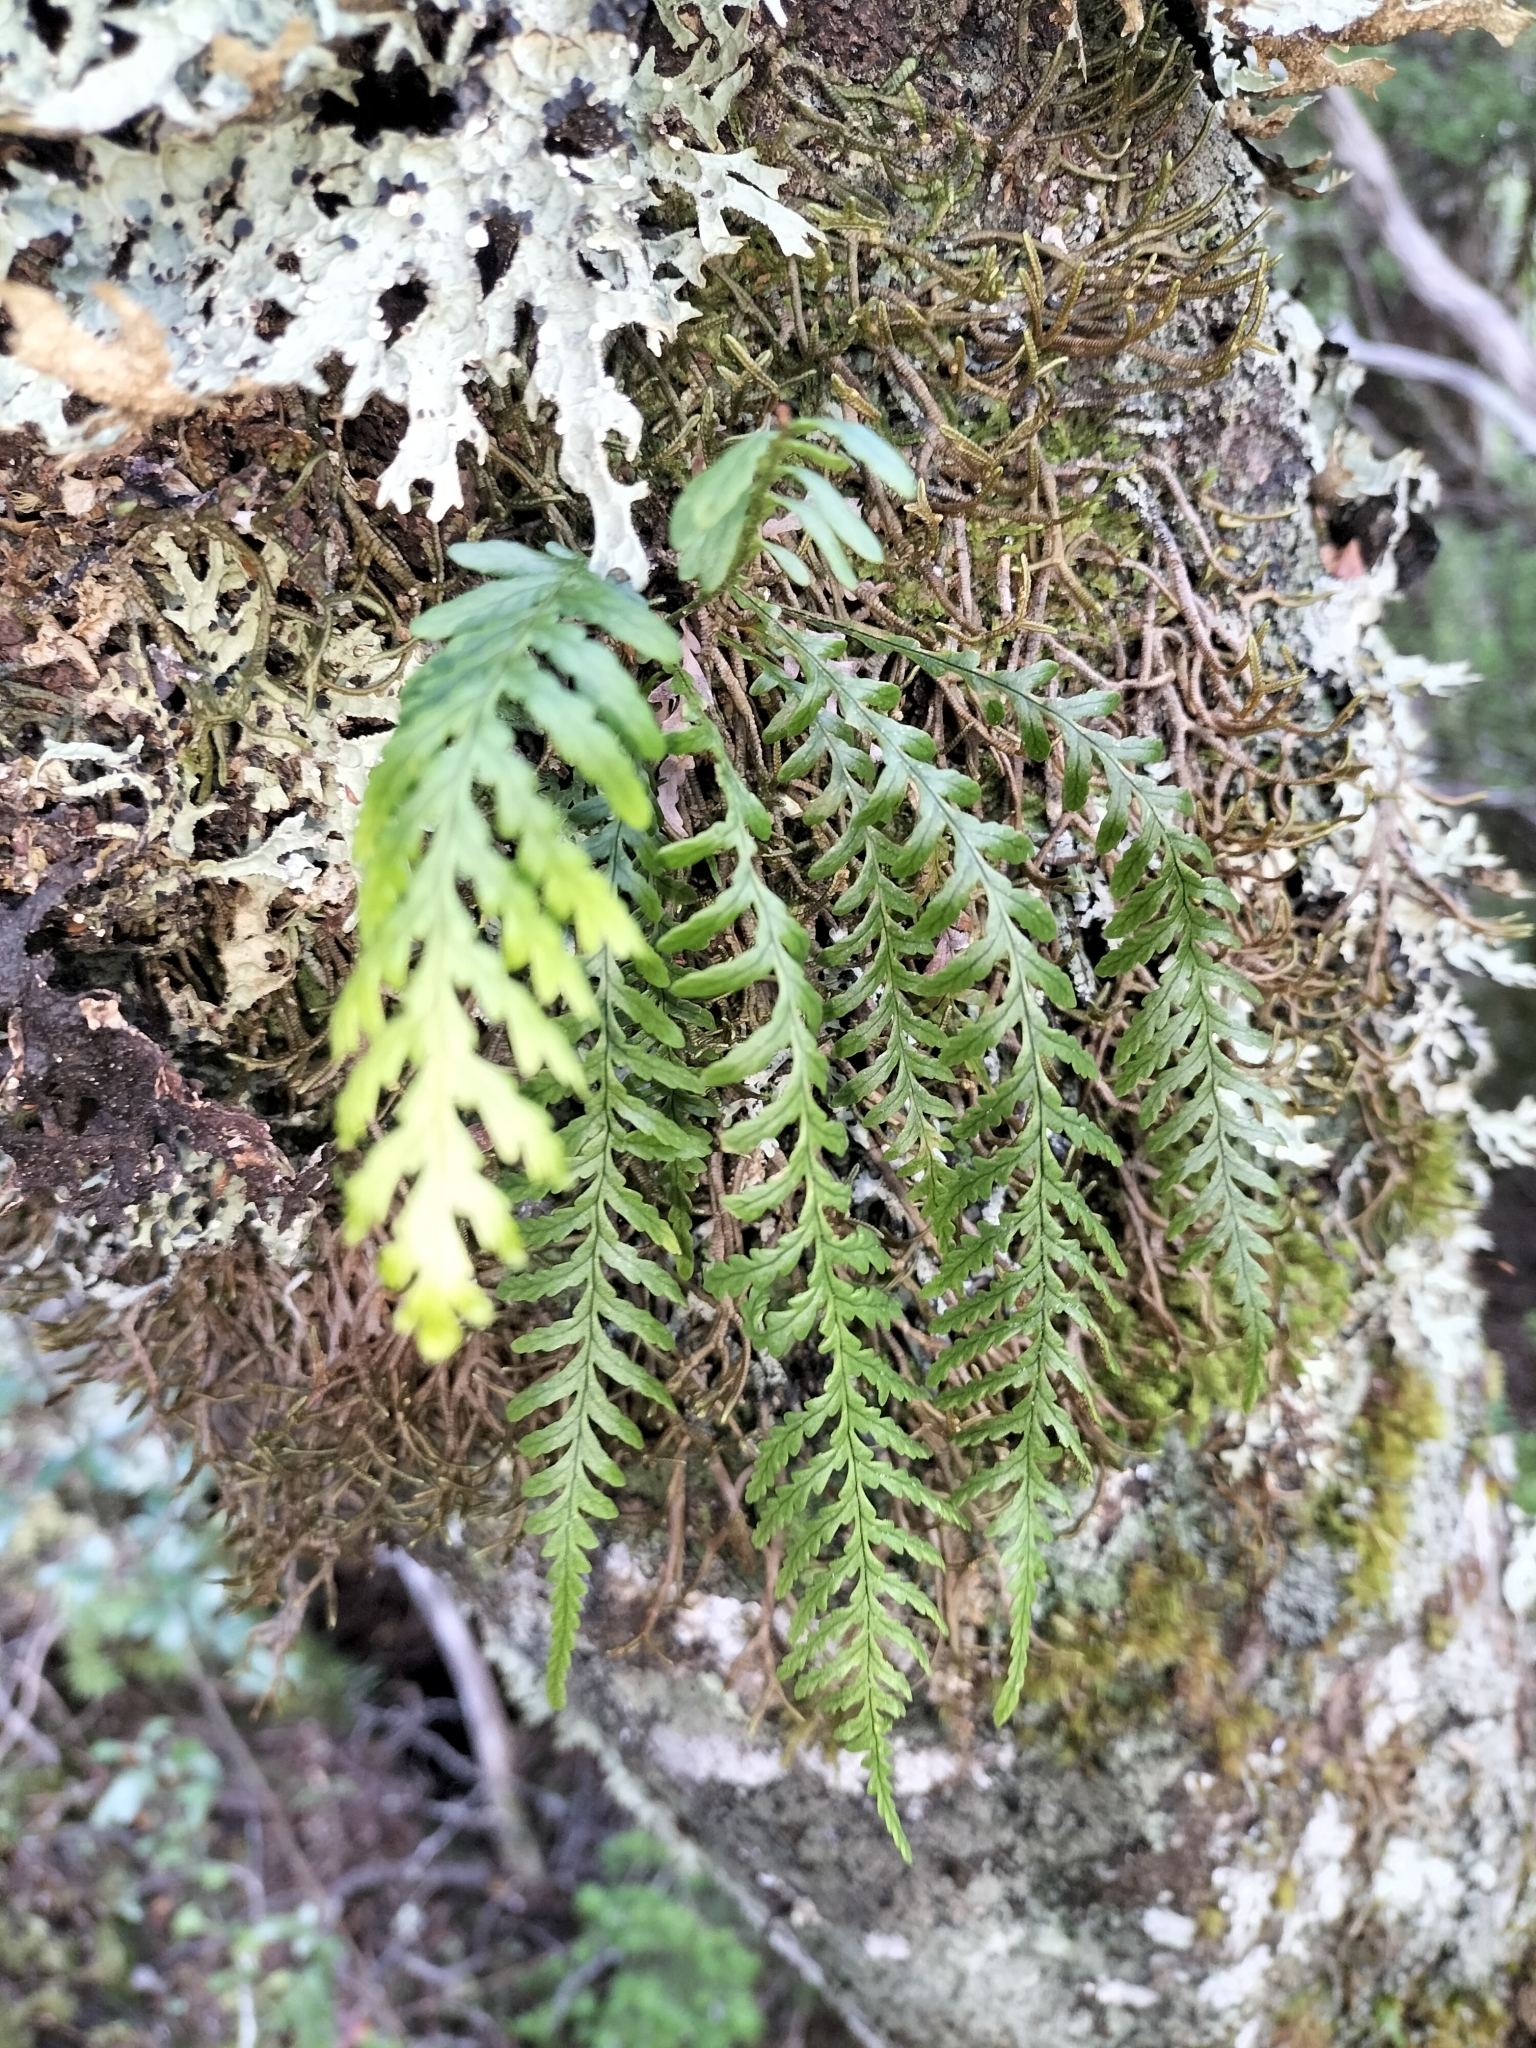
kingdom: Plantae
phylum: Tracheophyta
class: Polypodiopsida
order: Polypodiales
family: Polypodiaceae
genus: Notogrammitis
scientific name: Notogrammitis heterophylla
